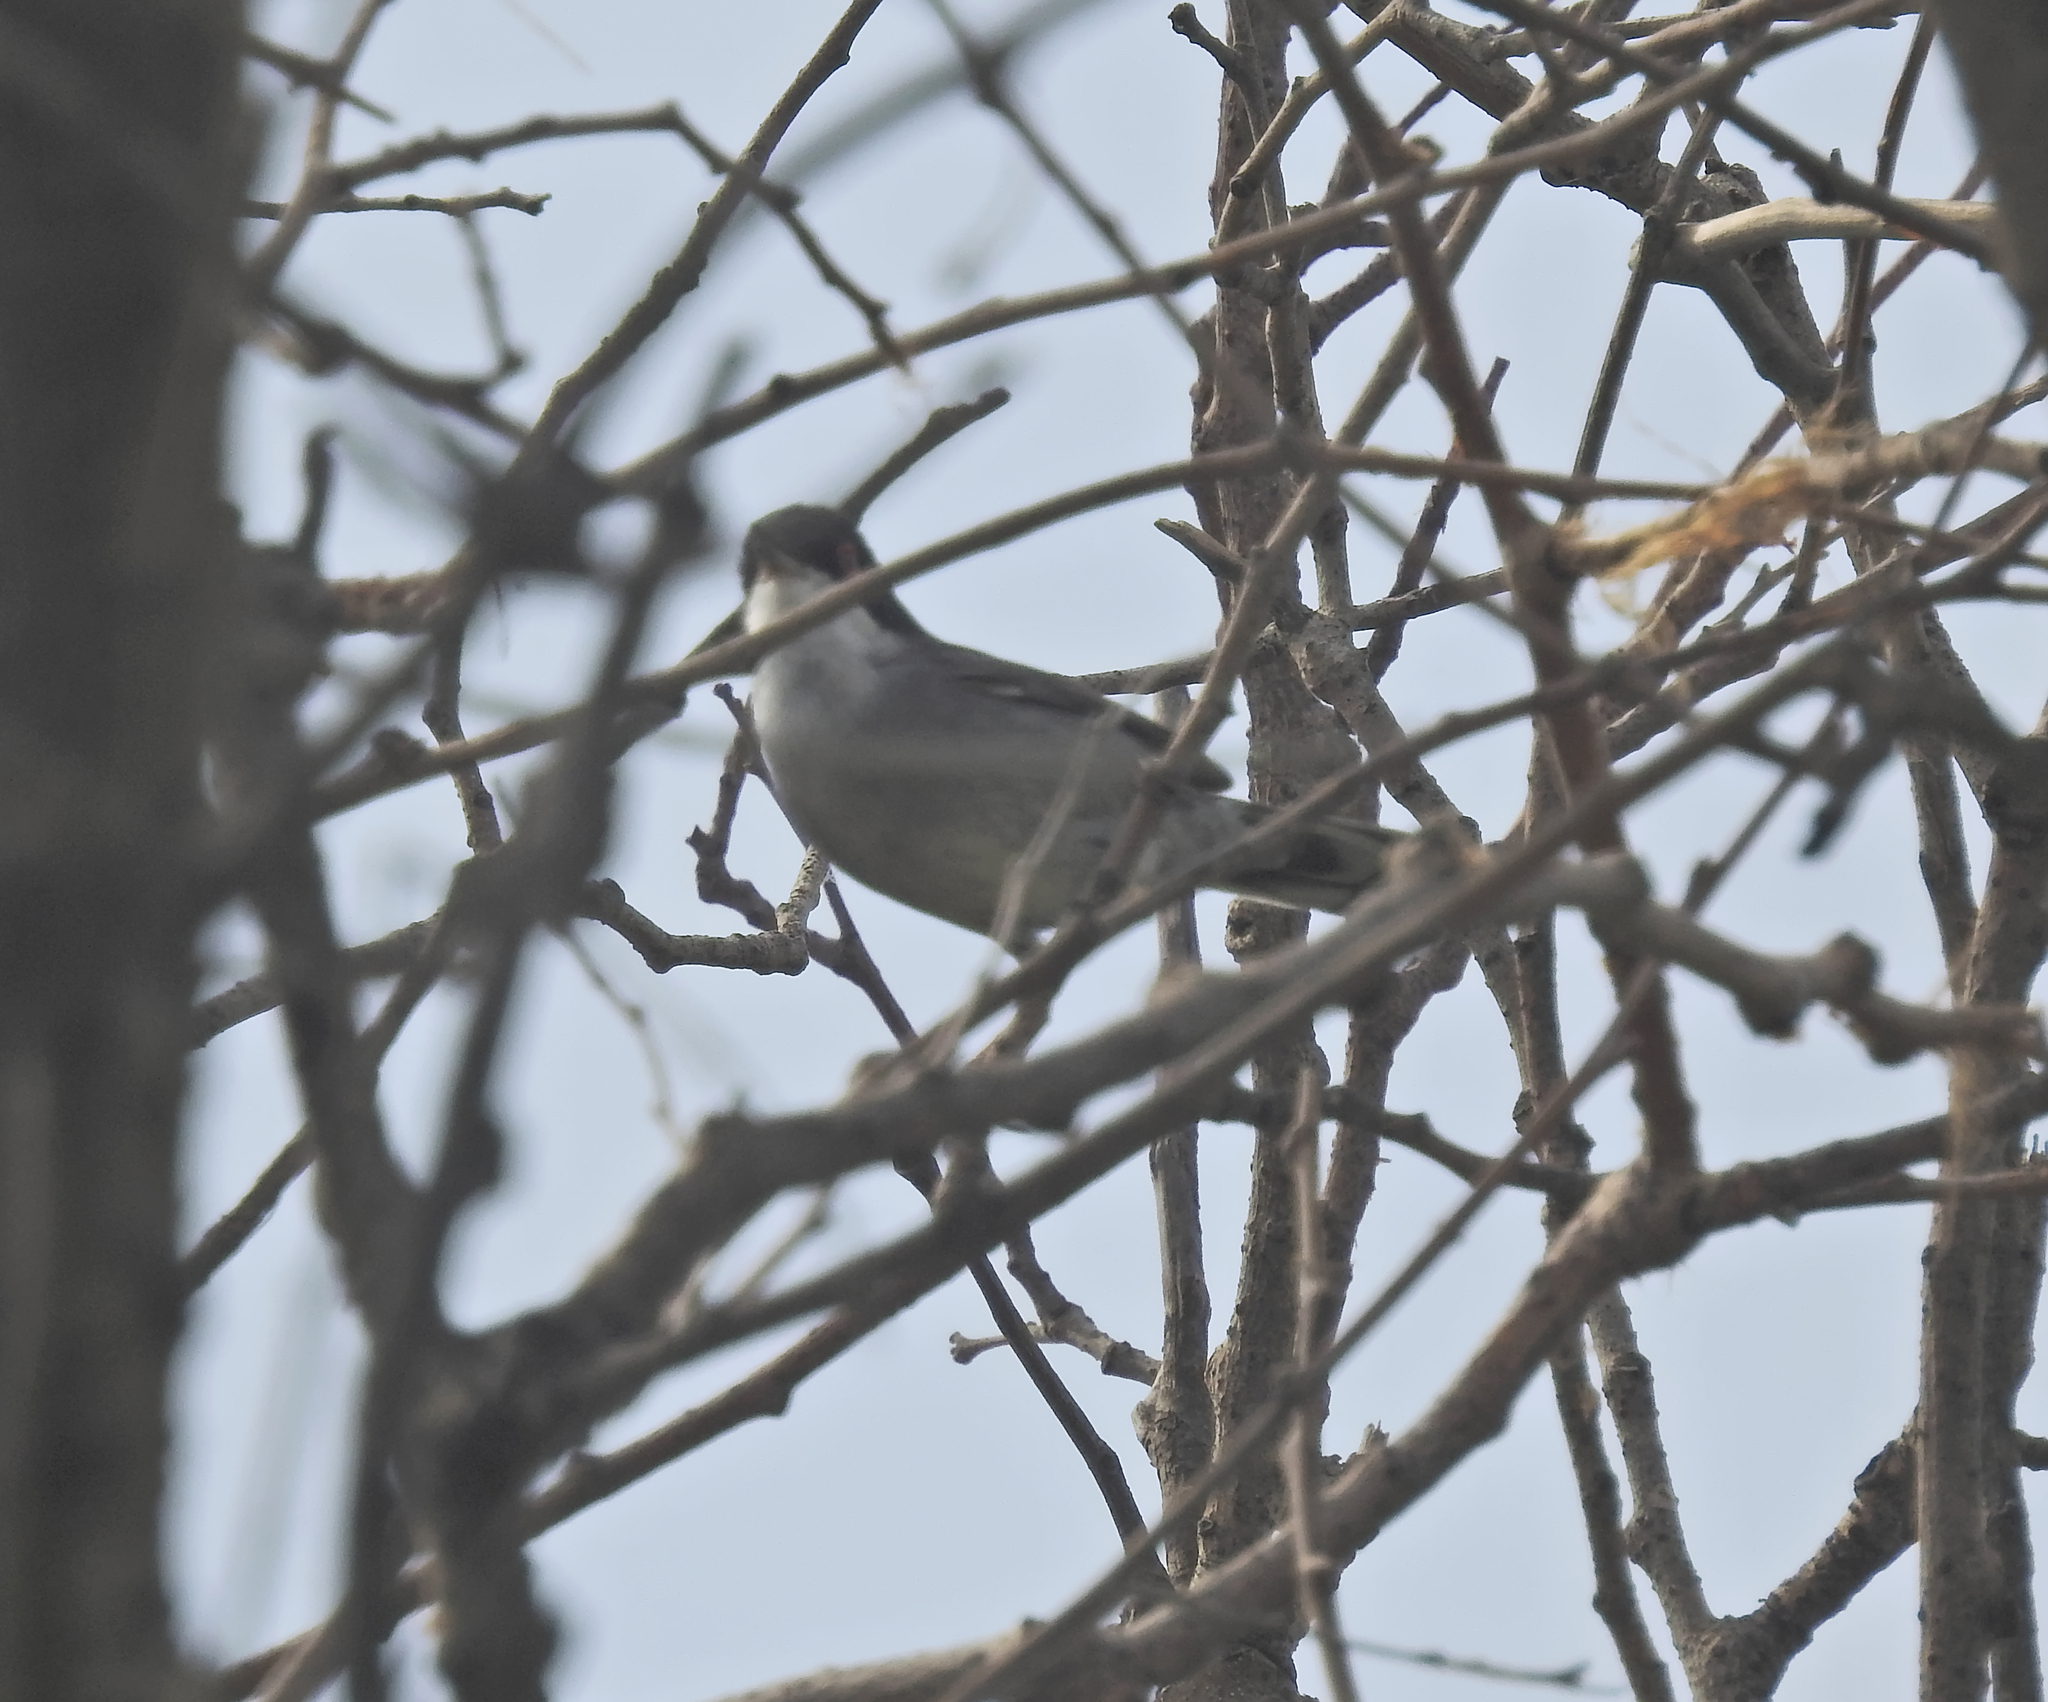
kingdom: Animalia
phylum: Chordata
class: Aves
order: Passeriformes
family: Sylviidae
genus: Curruca
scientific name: Curruca melanocephala
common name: Sardinian warbler
